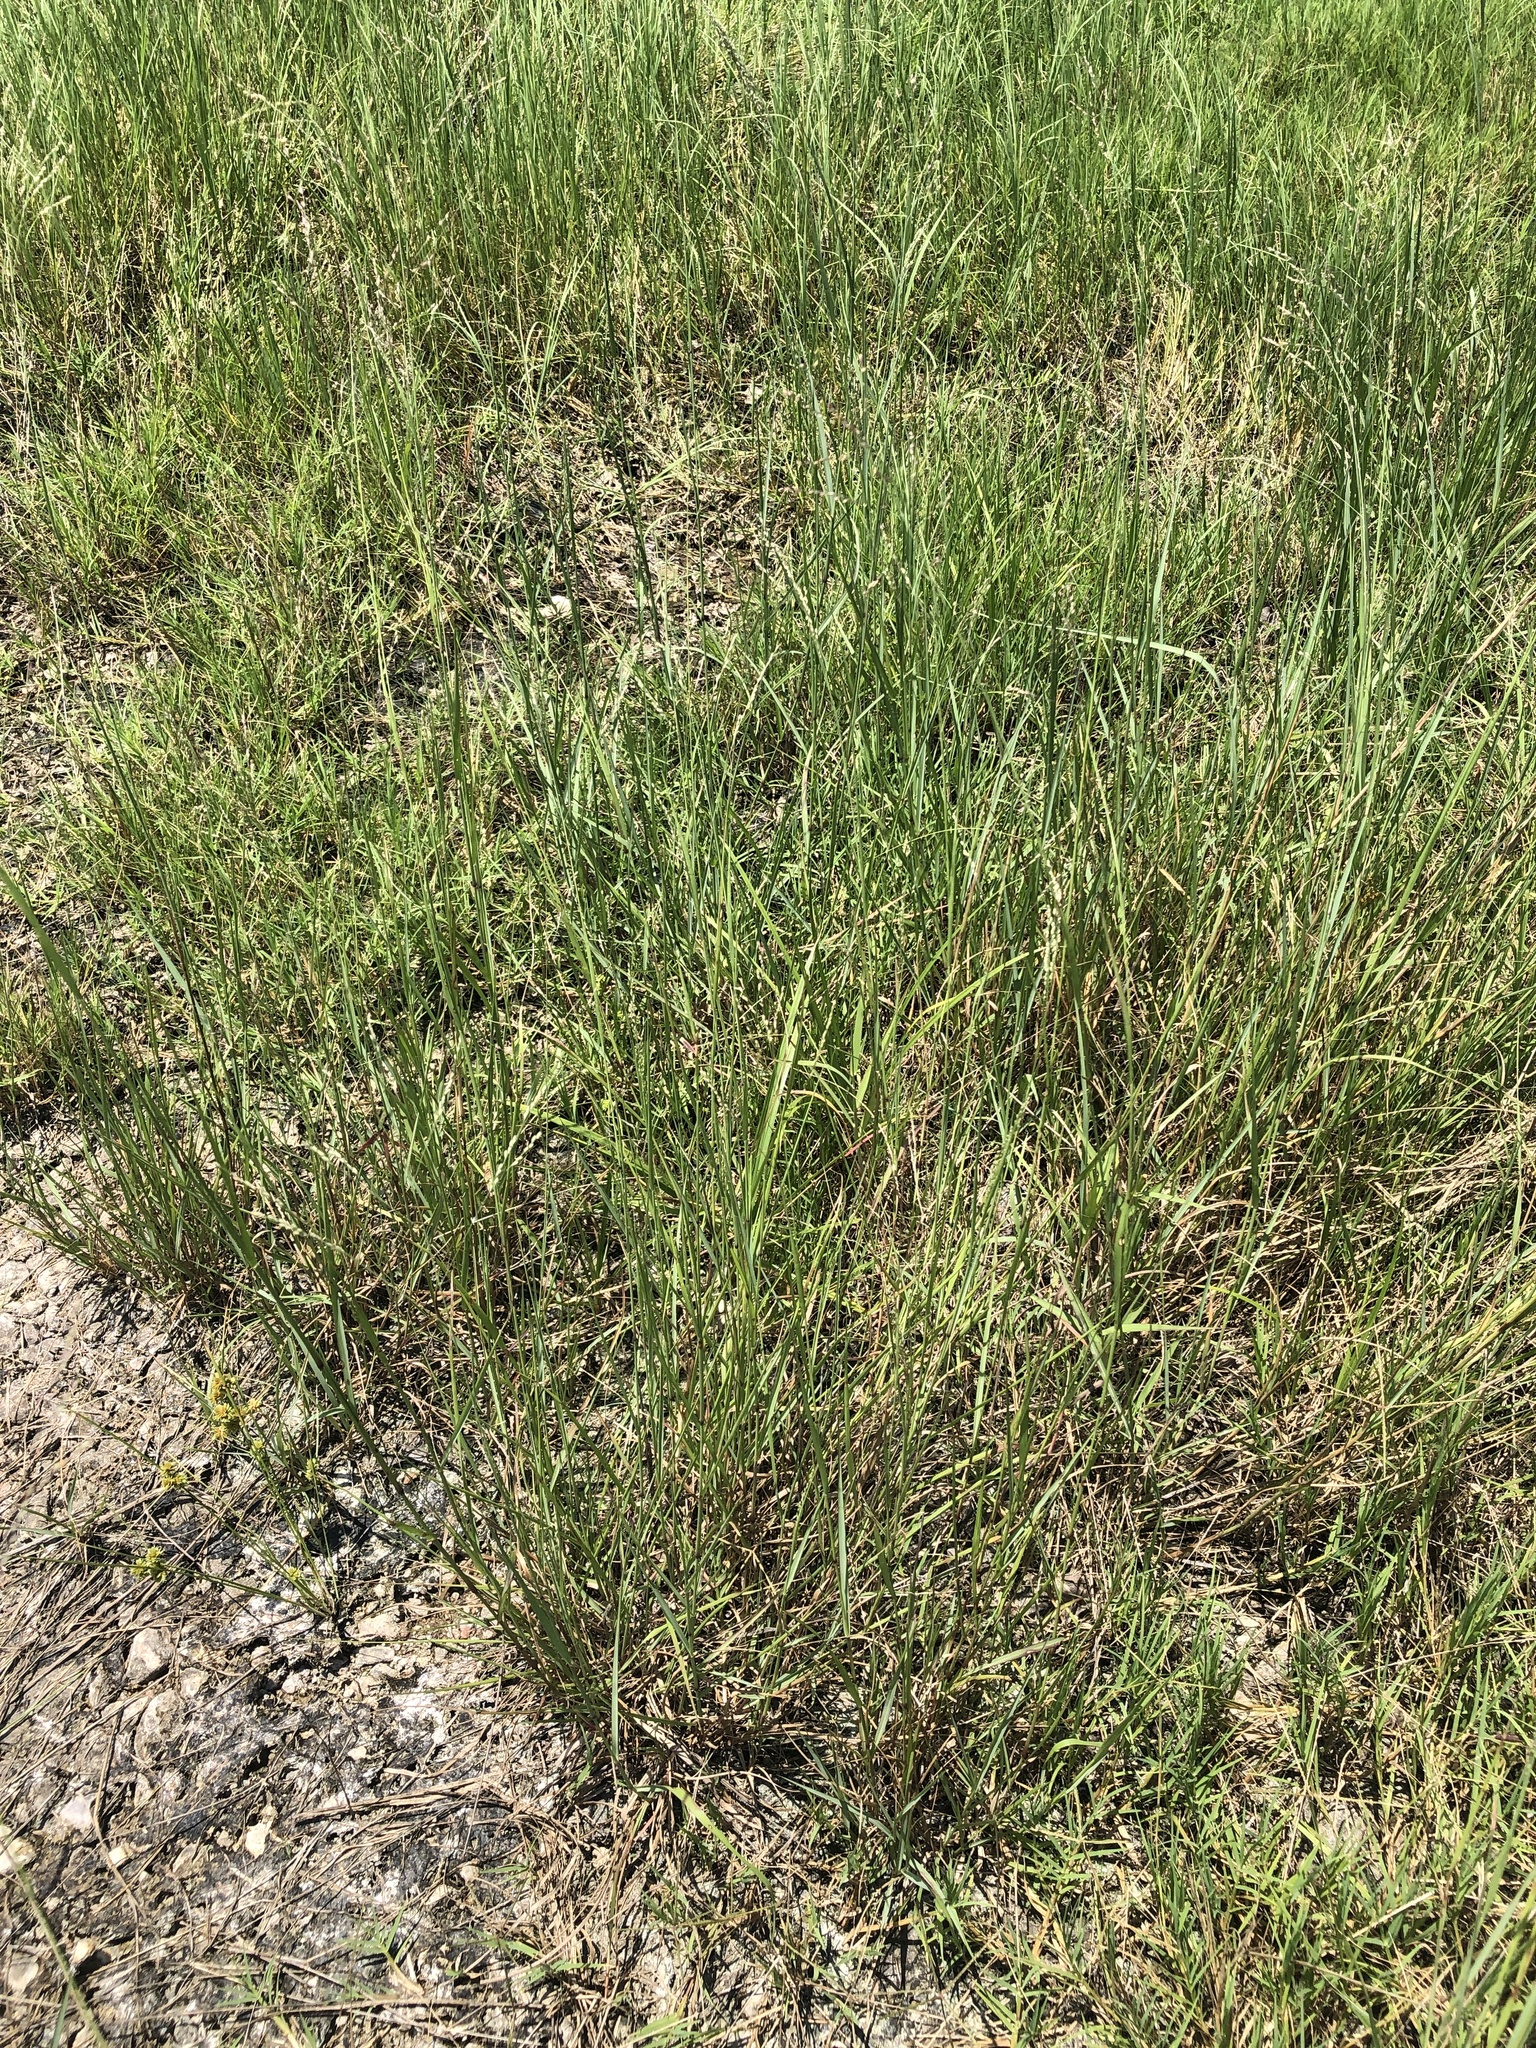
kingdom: Plantae
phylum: Tracheophyta
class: Liliopsida
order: Poales
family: Poaceae
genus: Panicum
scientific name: Panicum coloratum
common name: Kleingrass
